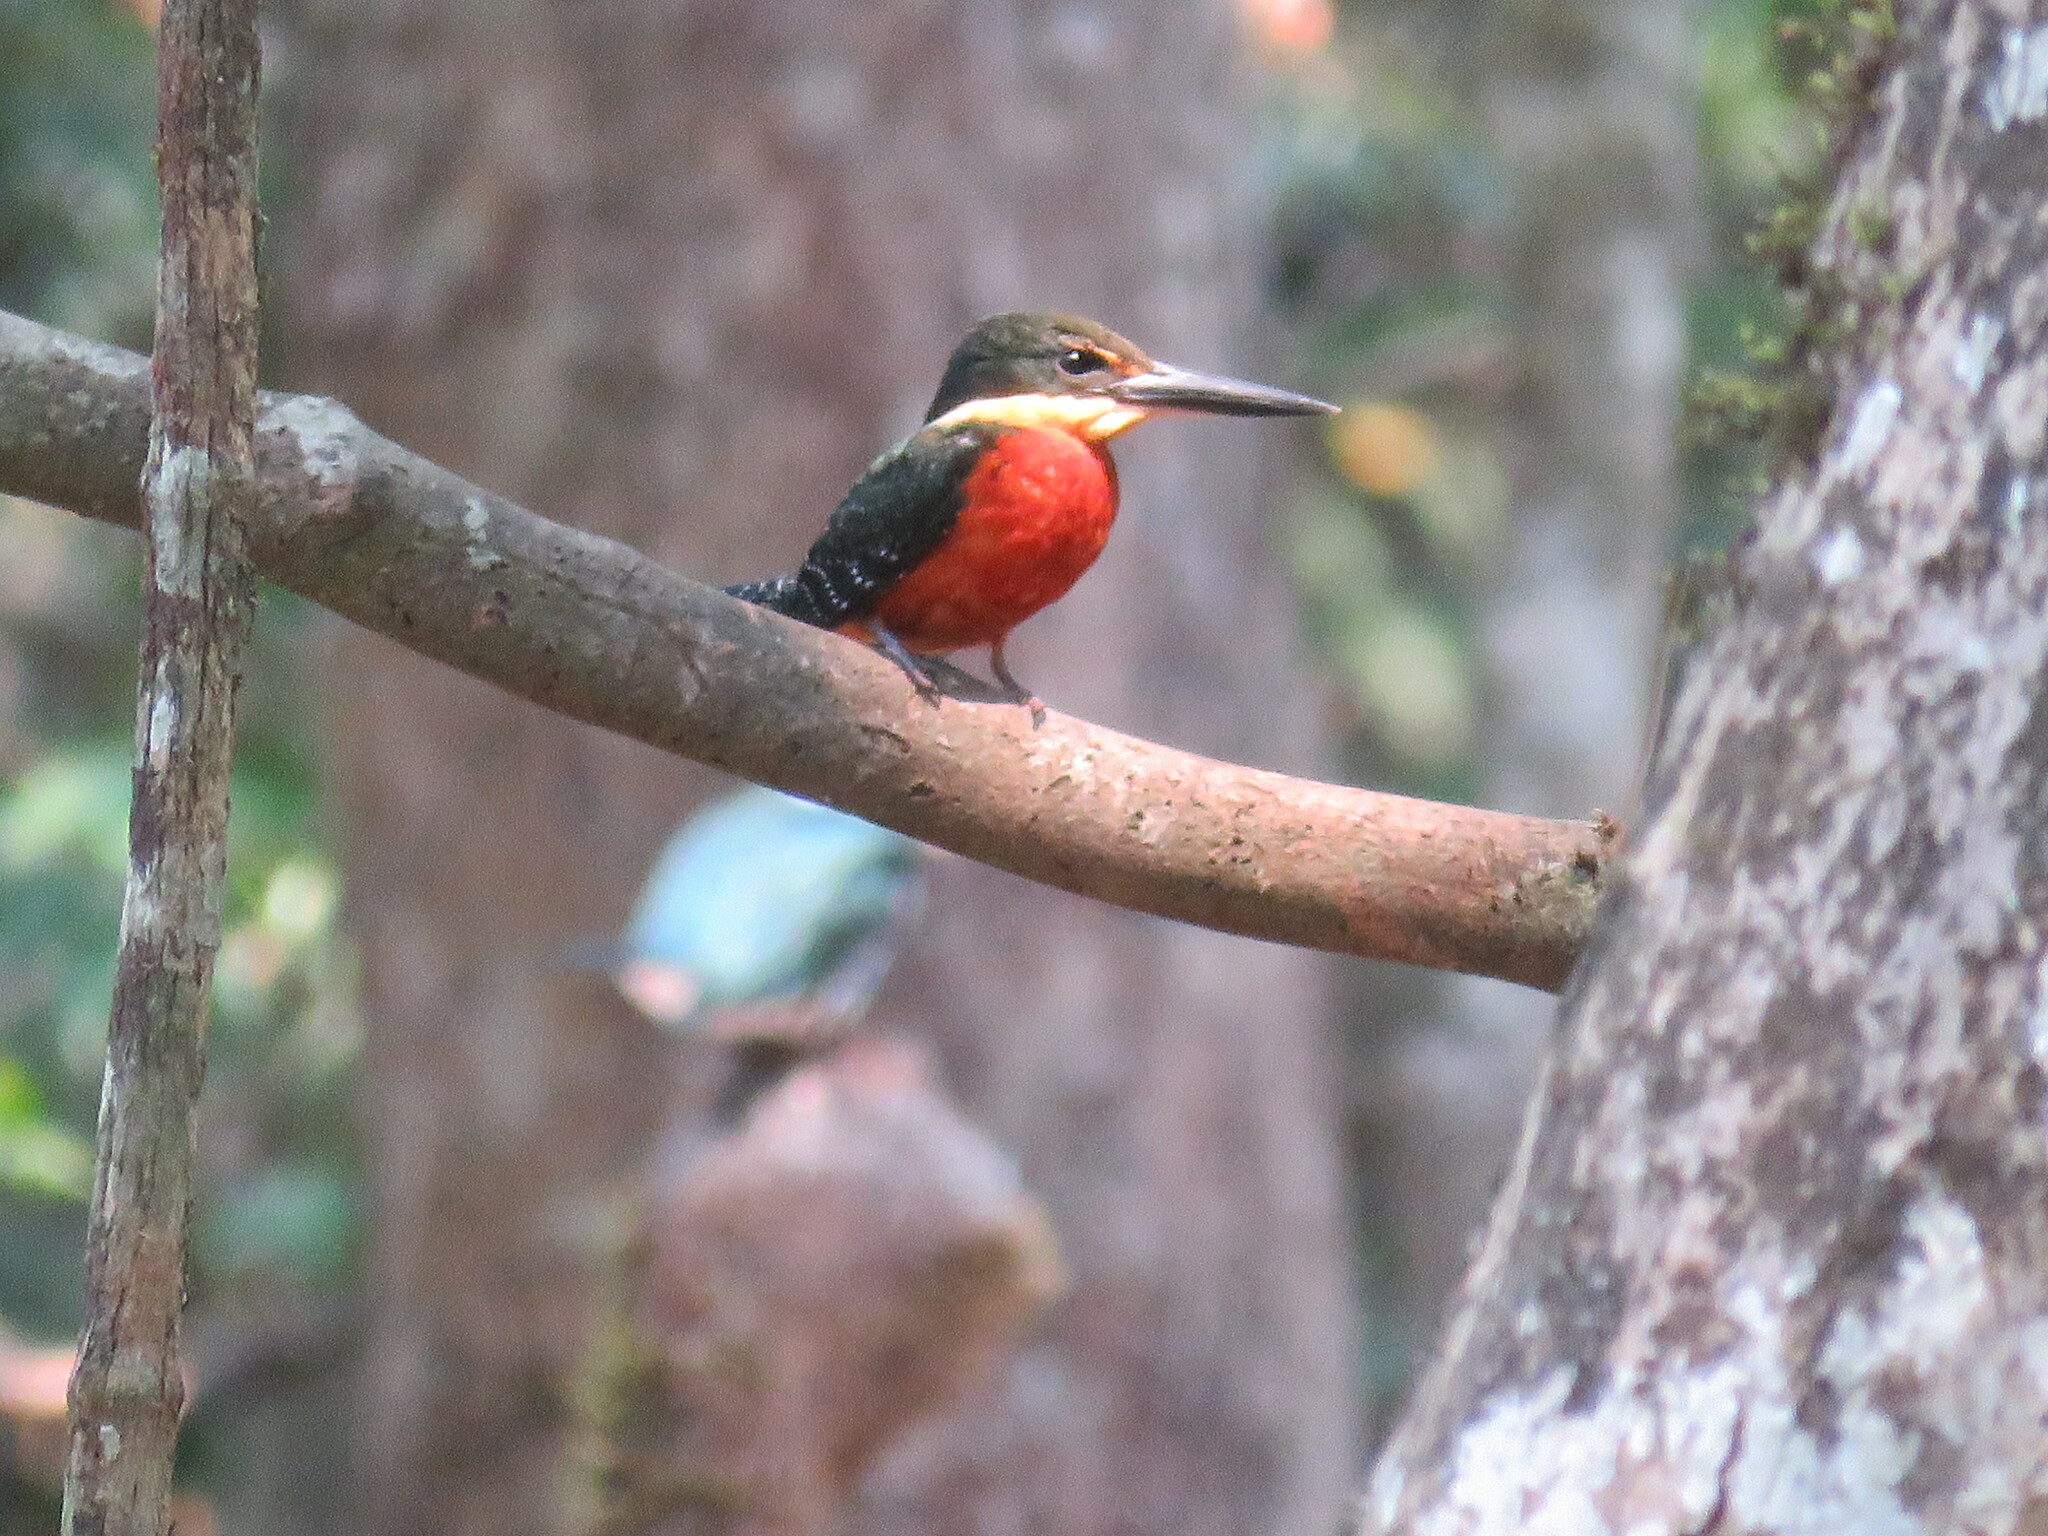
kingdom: Animalia
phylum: Chordata
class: Aves
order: Coraciiformes
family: Alcedinidae
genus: Chloroceryle
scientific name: Chloroceryle inda
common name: Green-and-rufous kingfisher
